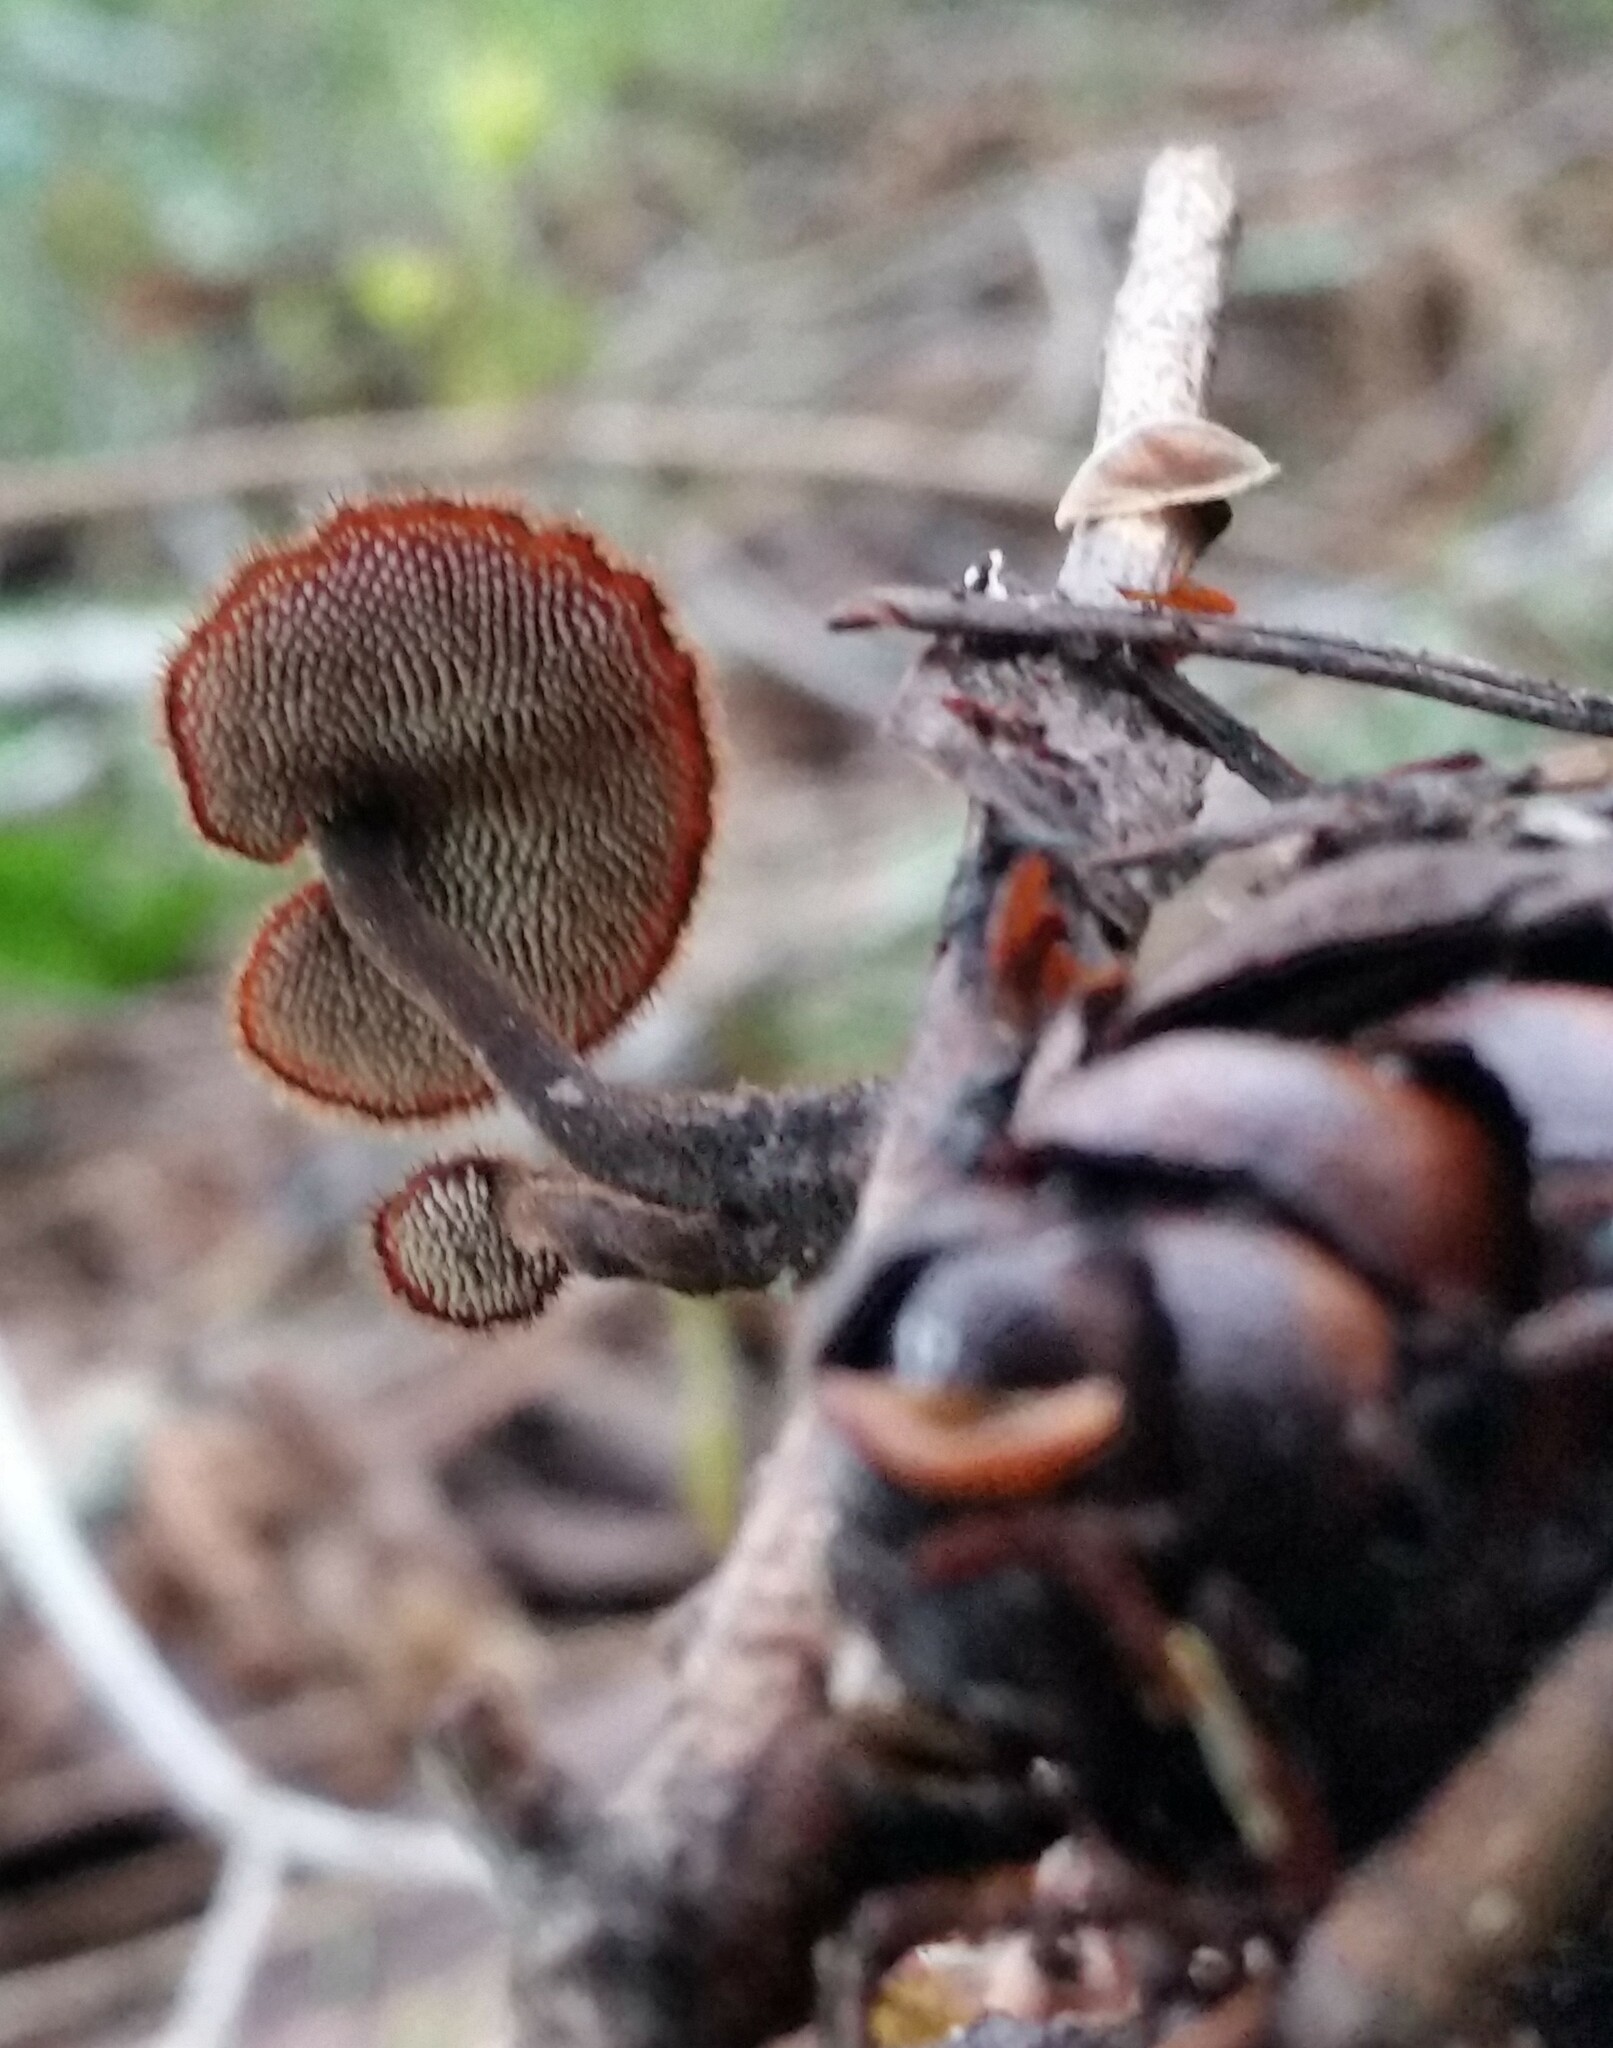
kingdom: Fungi
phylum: Basidiomycota
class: Agaricomycetes
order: Russulales
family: Auriscalpiaceae
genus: Auriscalpium
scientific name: Auriscalpium vulgare
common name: Earpick fungus
